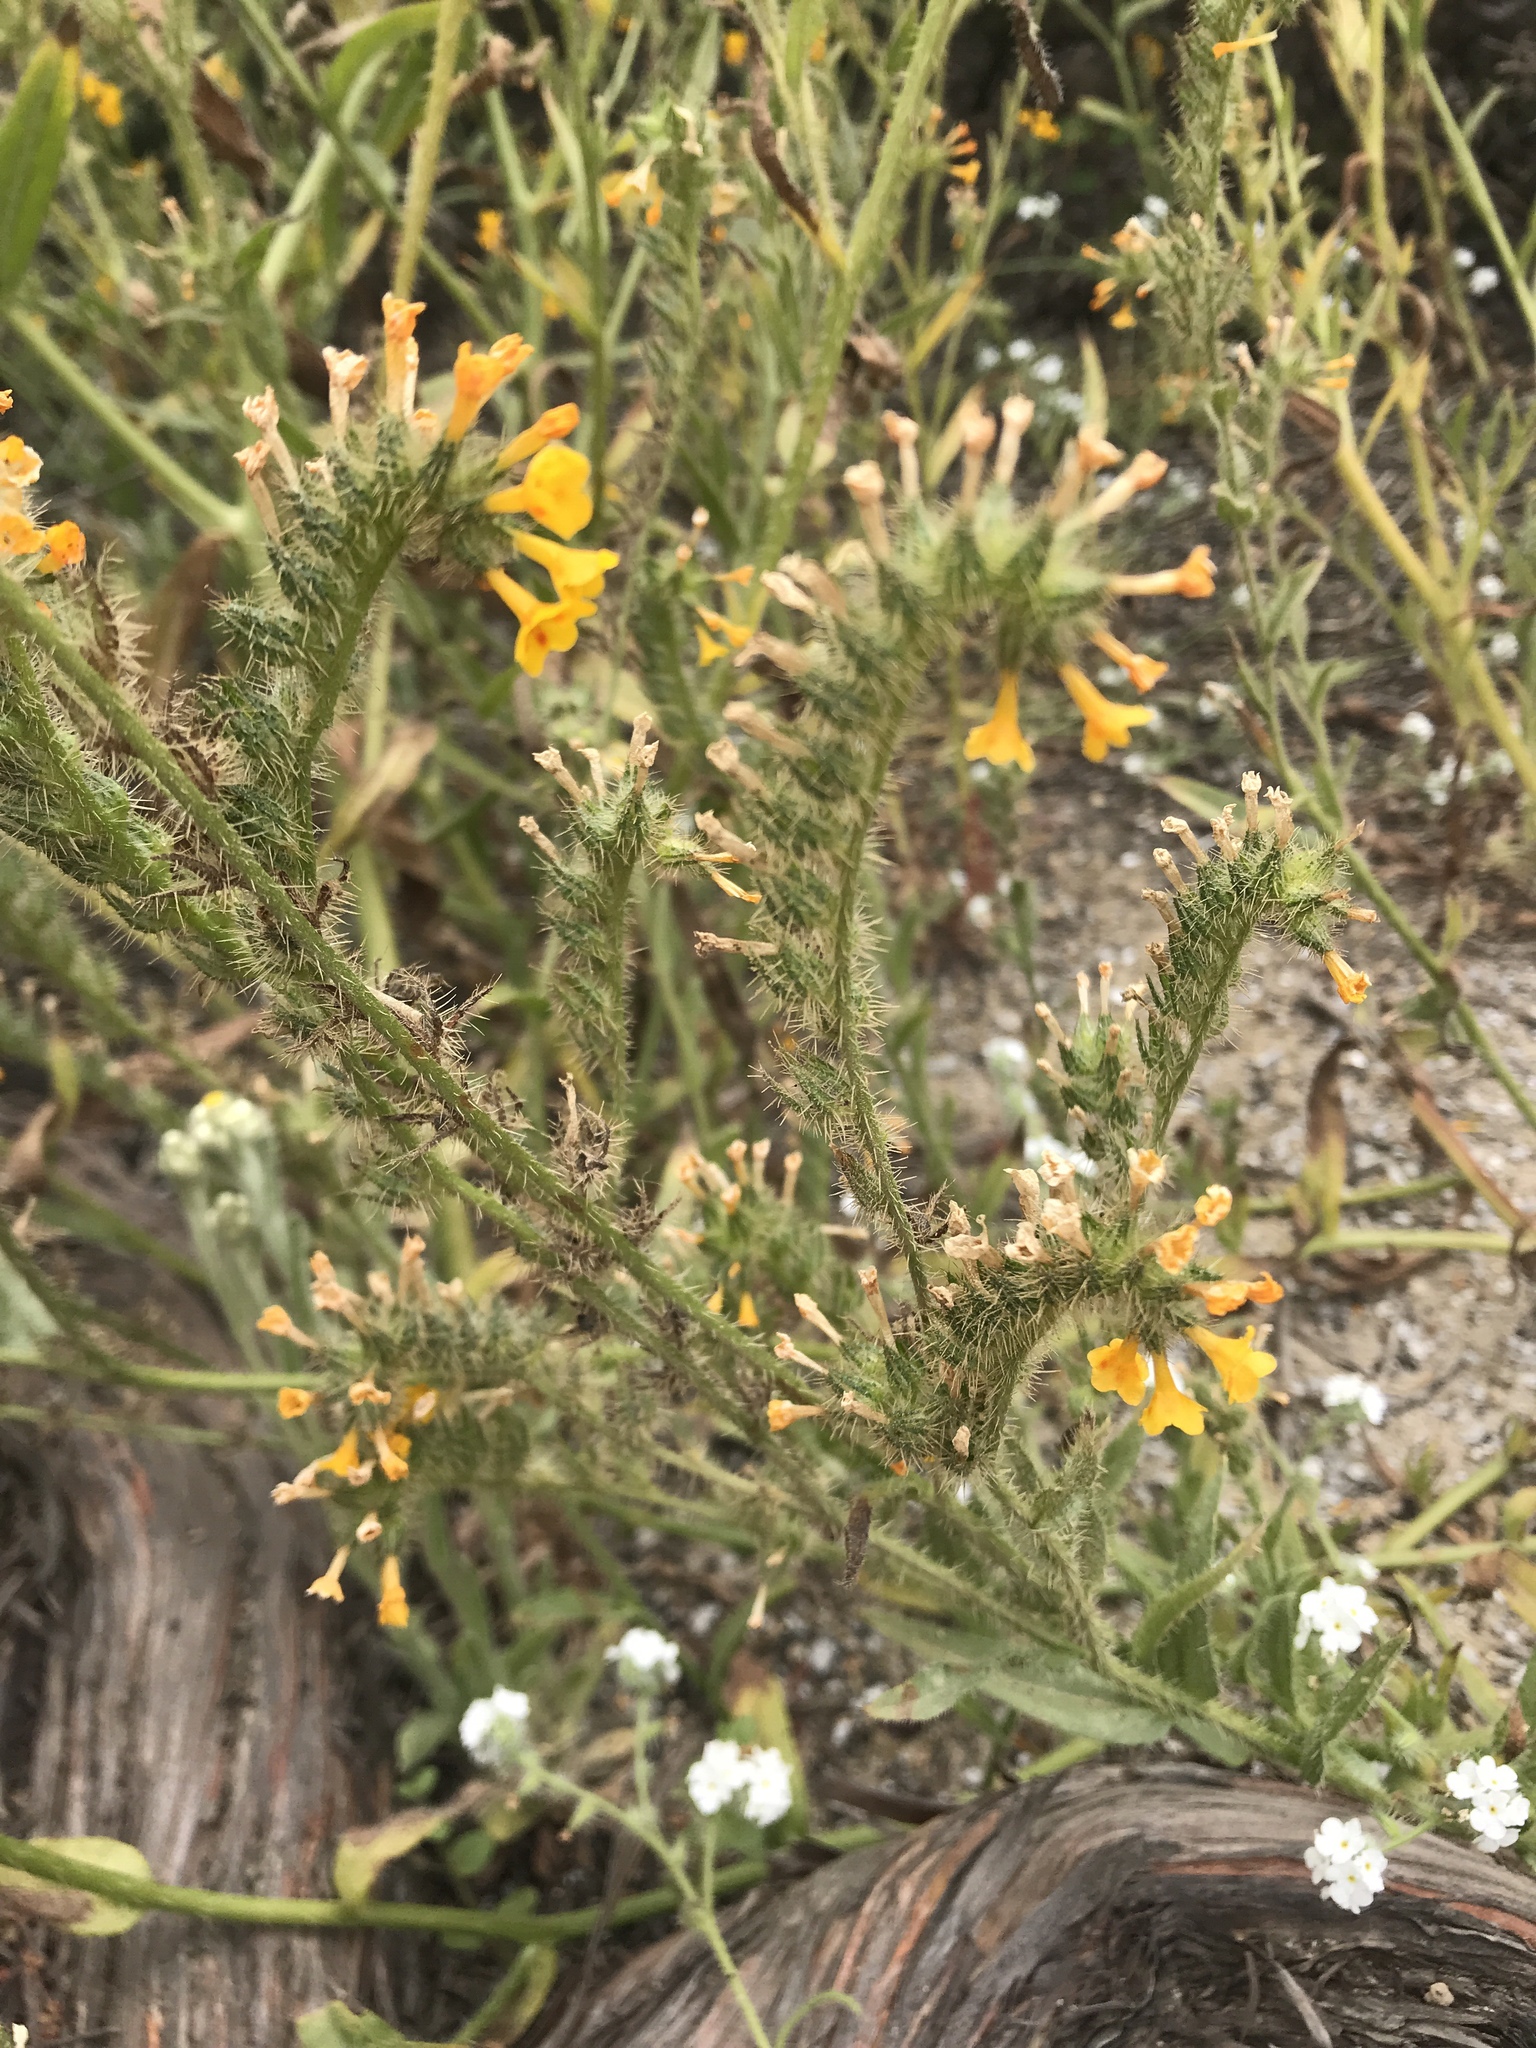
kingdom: Plantae
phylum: Tracheophyta
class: Magnoliopsida
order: Boraginales
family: Boraginaceae
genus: Amsinckia
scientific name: Amsinckia menziesii
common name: Menzies' fiddleneck
